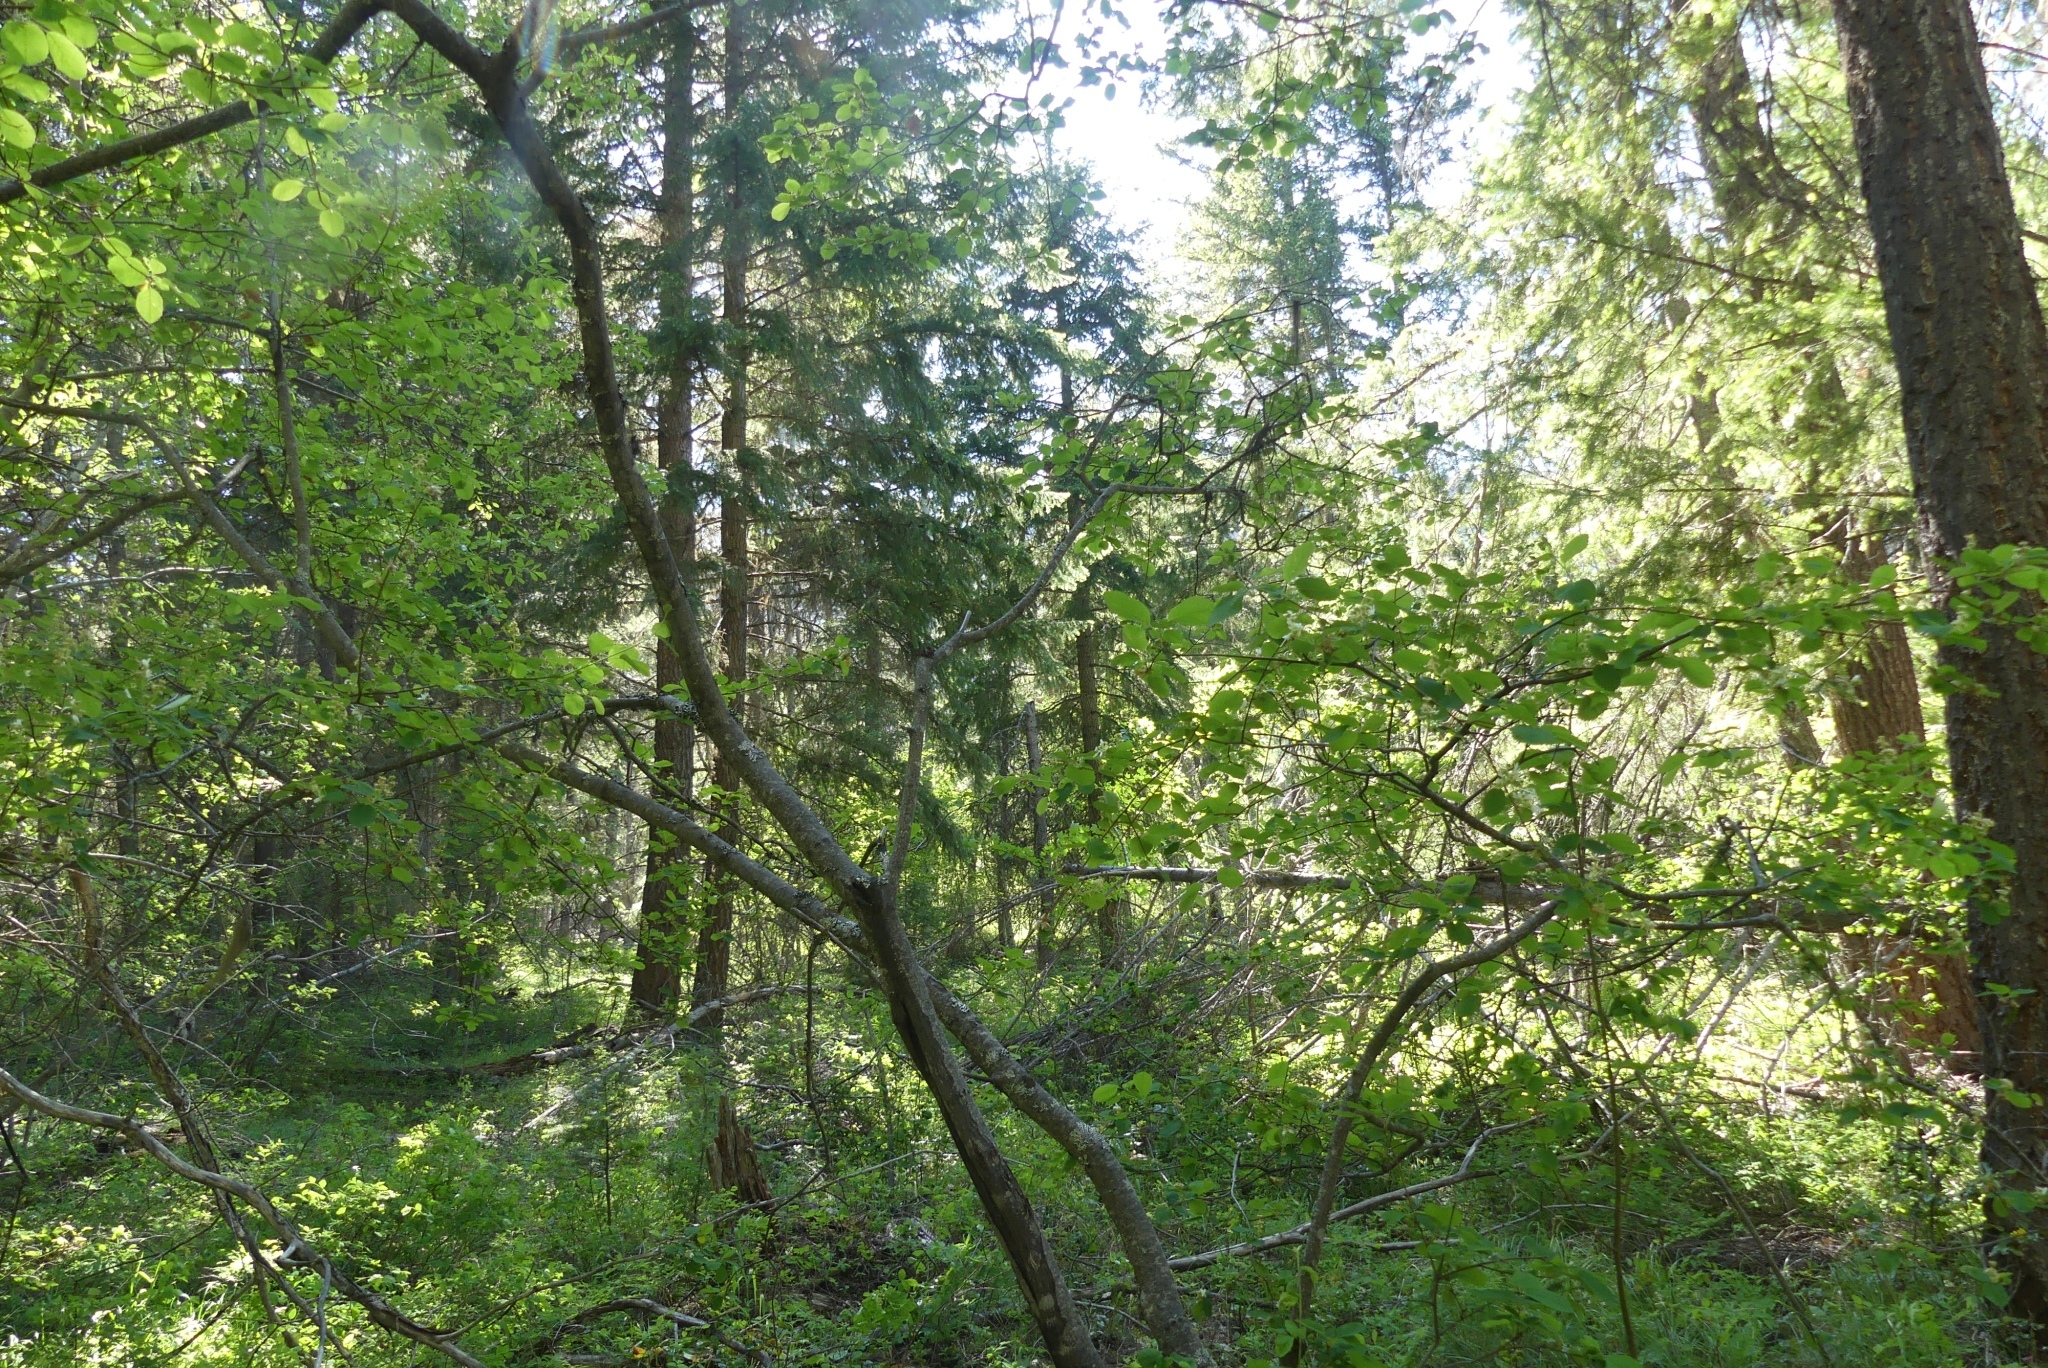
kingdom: Plantae
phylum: Tracheophyta
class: Magnoliopsida
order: Rosales
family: Rosaceae
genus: Amelanchier
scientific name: Amelanchier alnifolia
